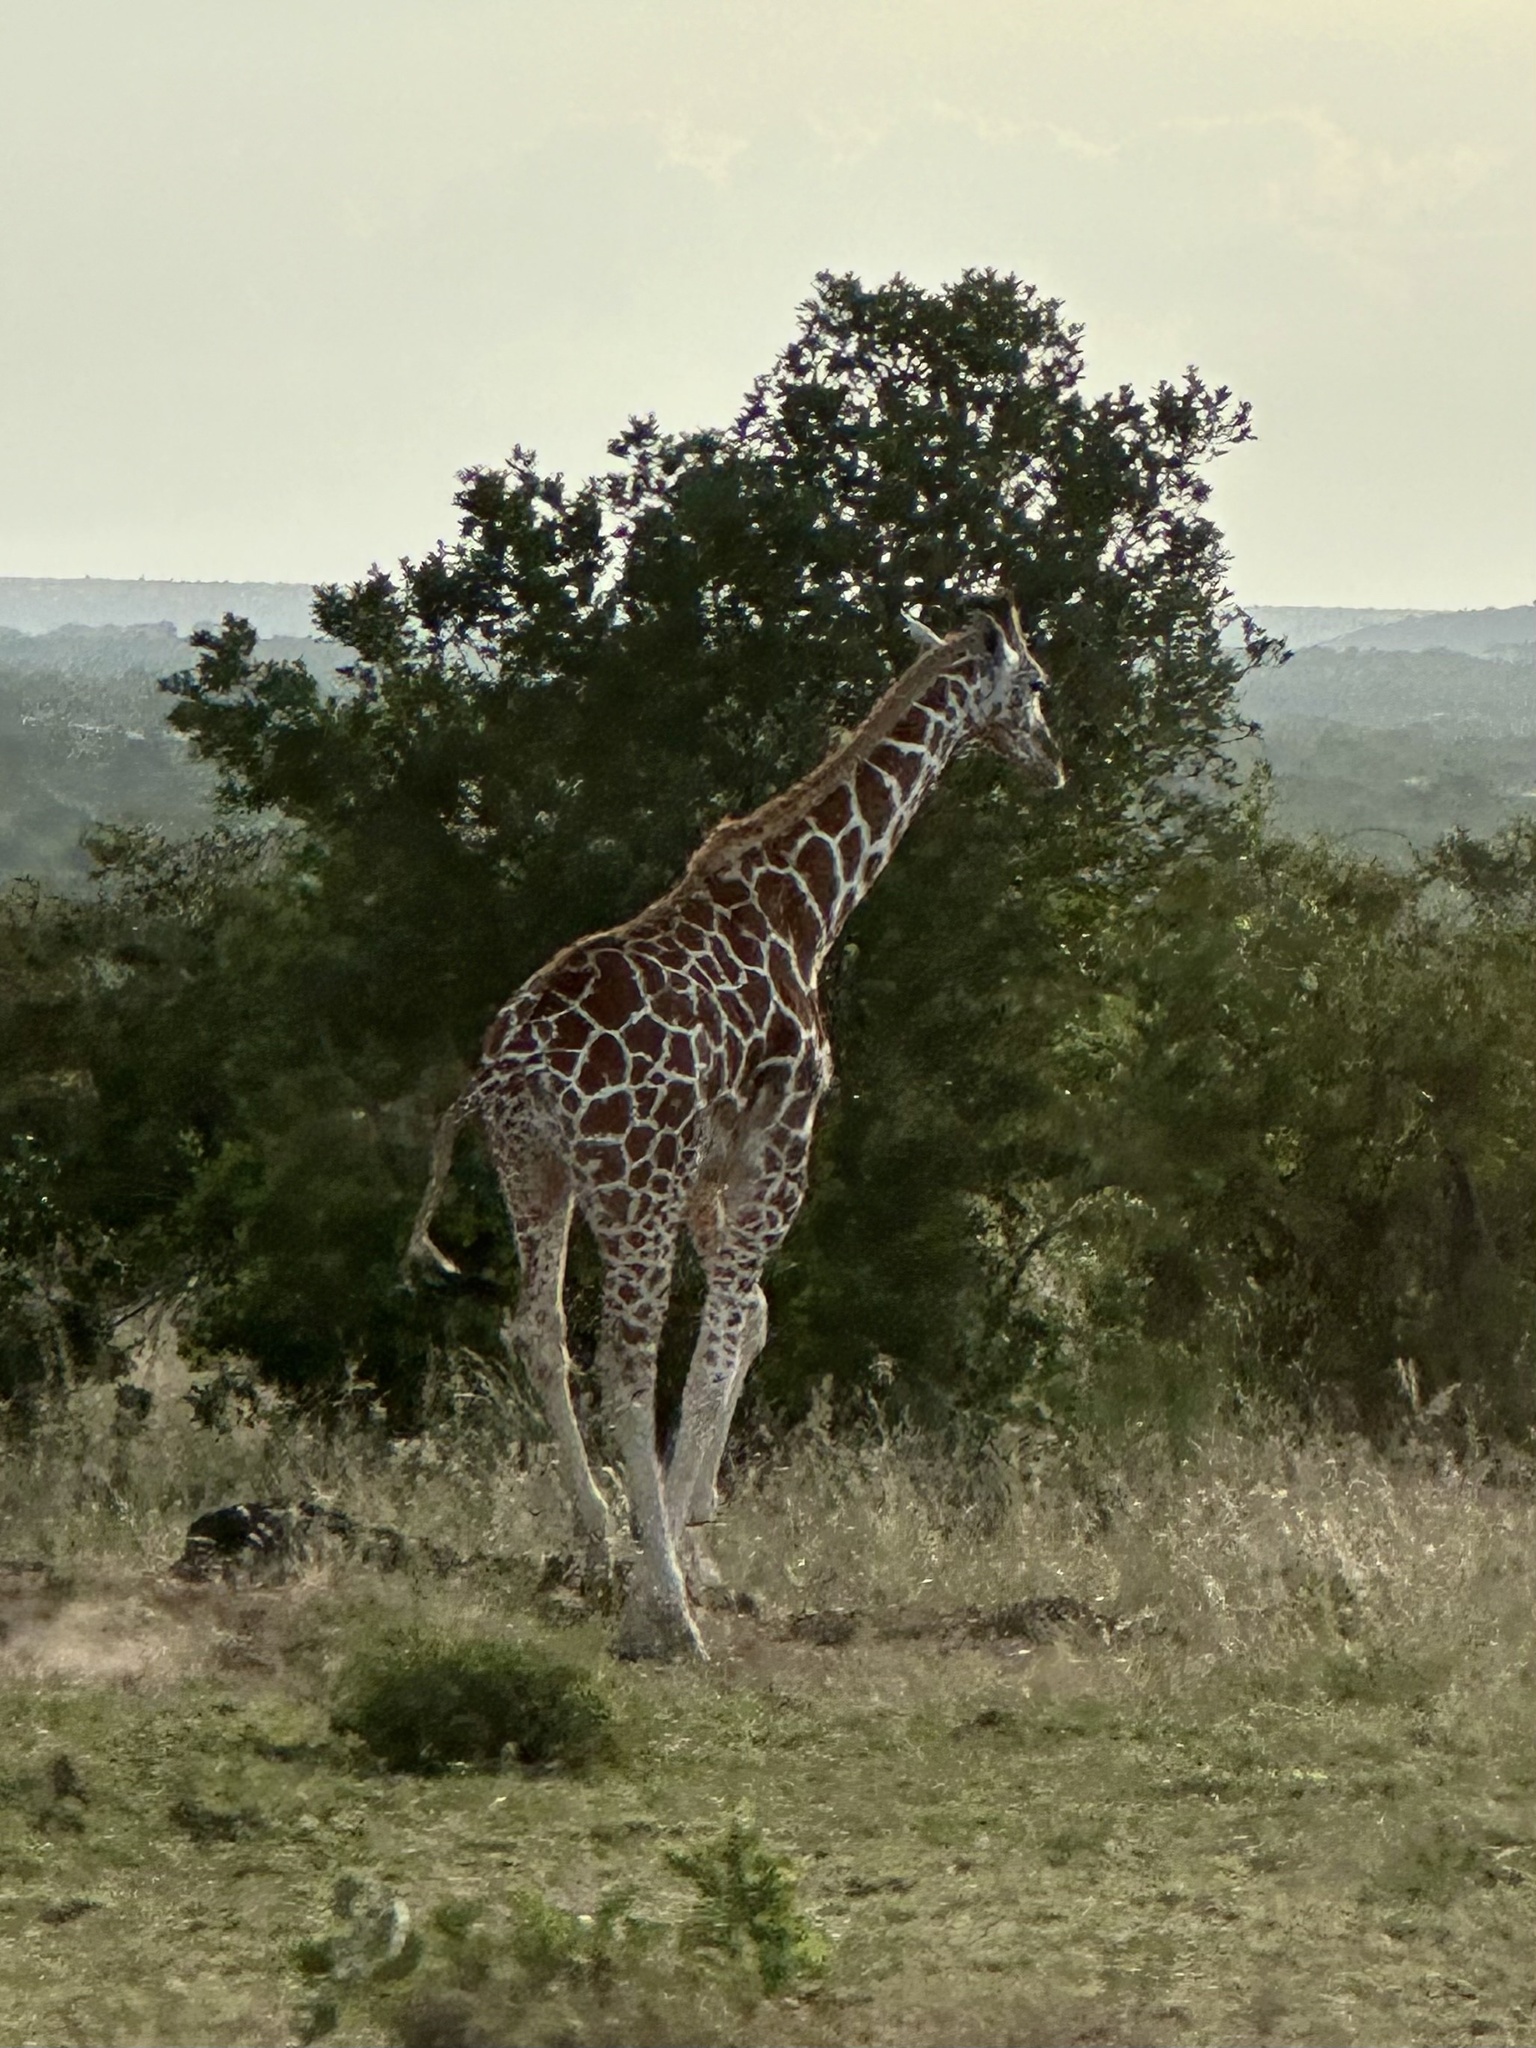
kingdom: Animalia
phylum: Chordata
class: Mammalia
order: Artiodactyla
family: Giraffidae
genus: Giraffa
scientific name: Giraffa reticulata
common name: Reticulated giraffe
